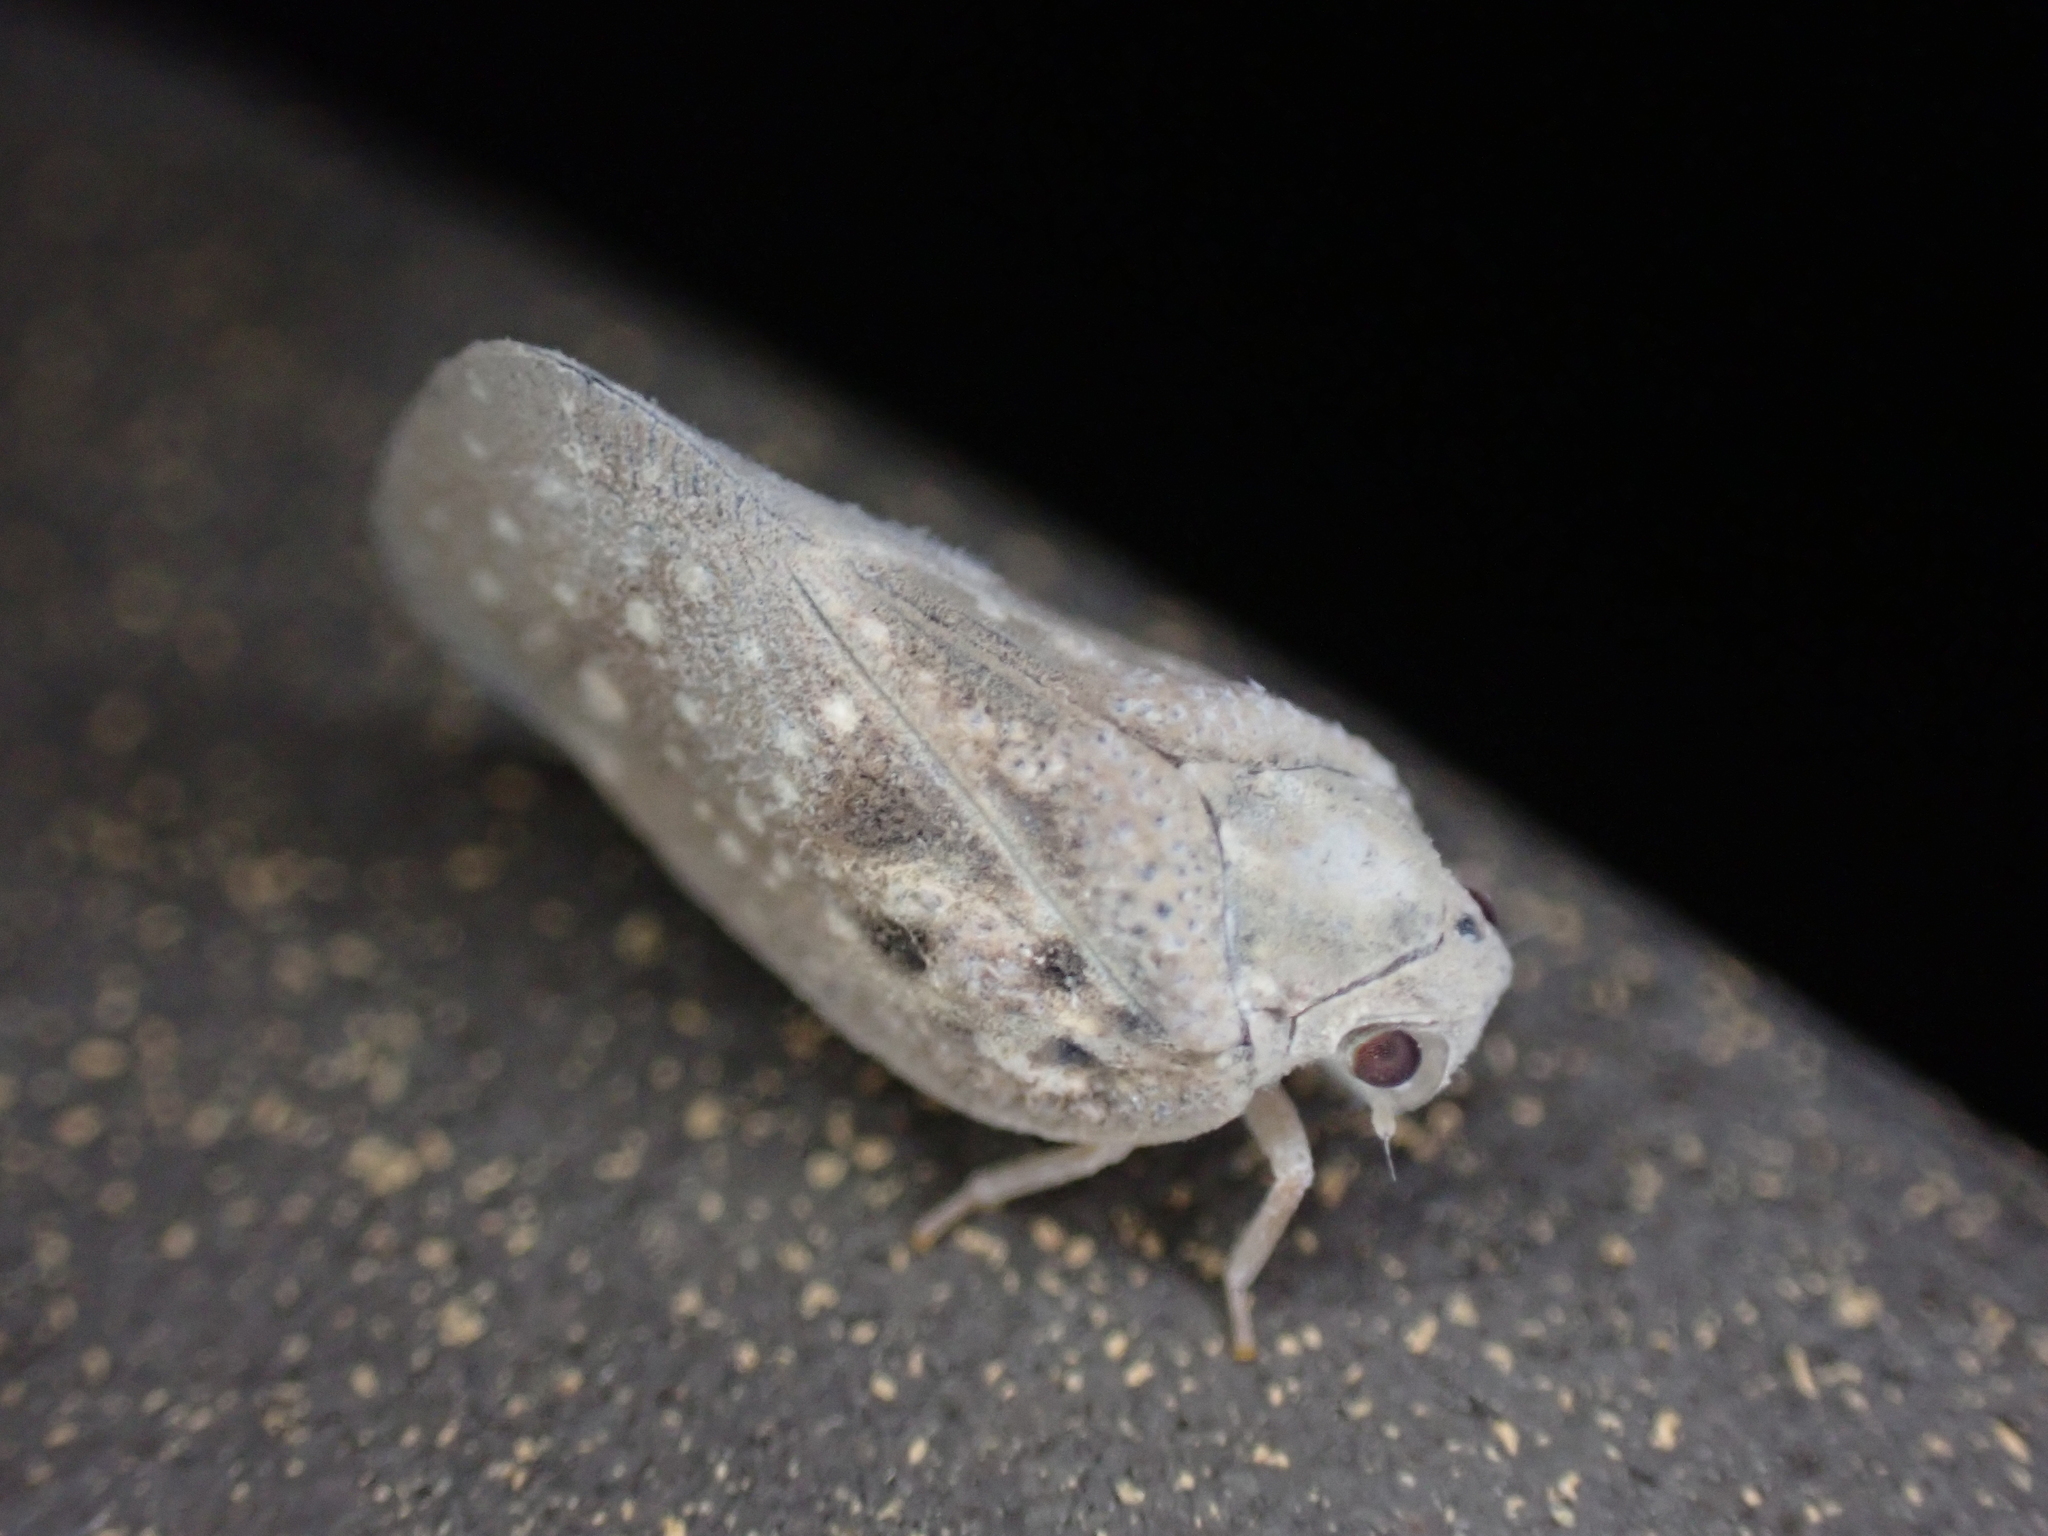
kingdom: Animalia
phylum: Arthropoda
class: Insecta
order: Hemiptera
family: Flatidae
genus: Metcalfa
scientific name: Metcalfa pruinosa
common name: Citrus flatid planthopper
